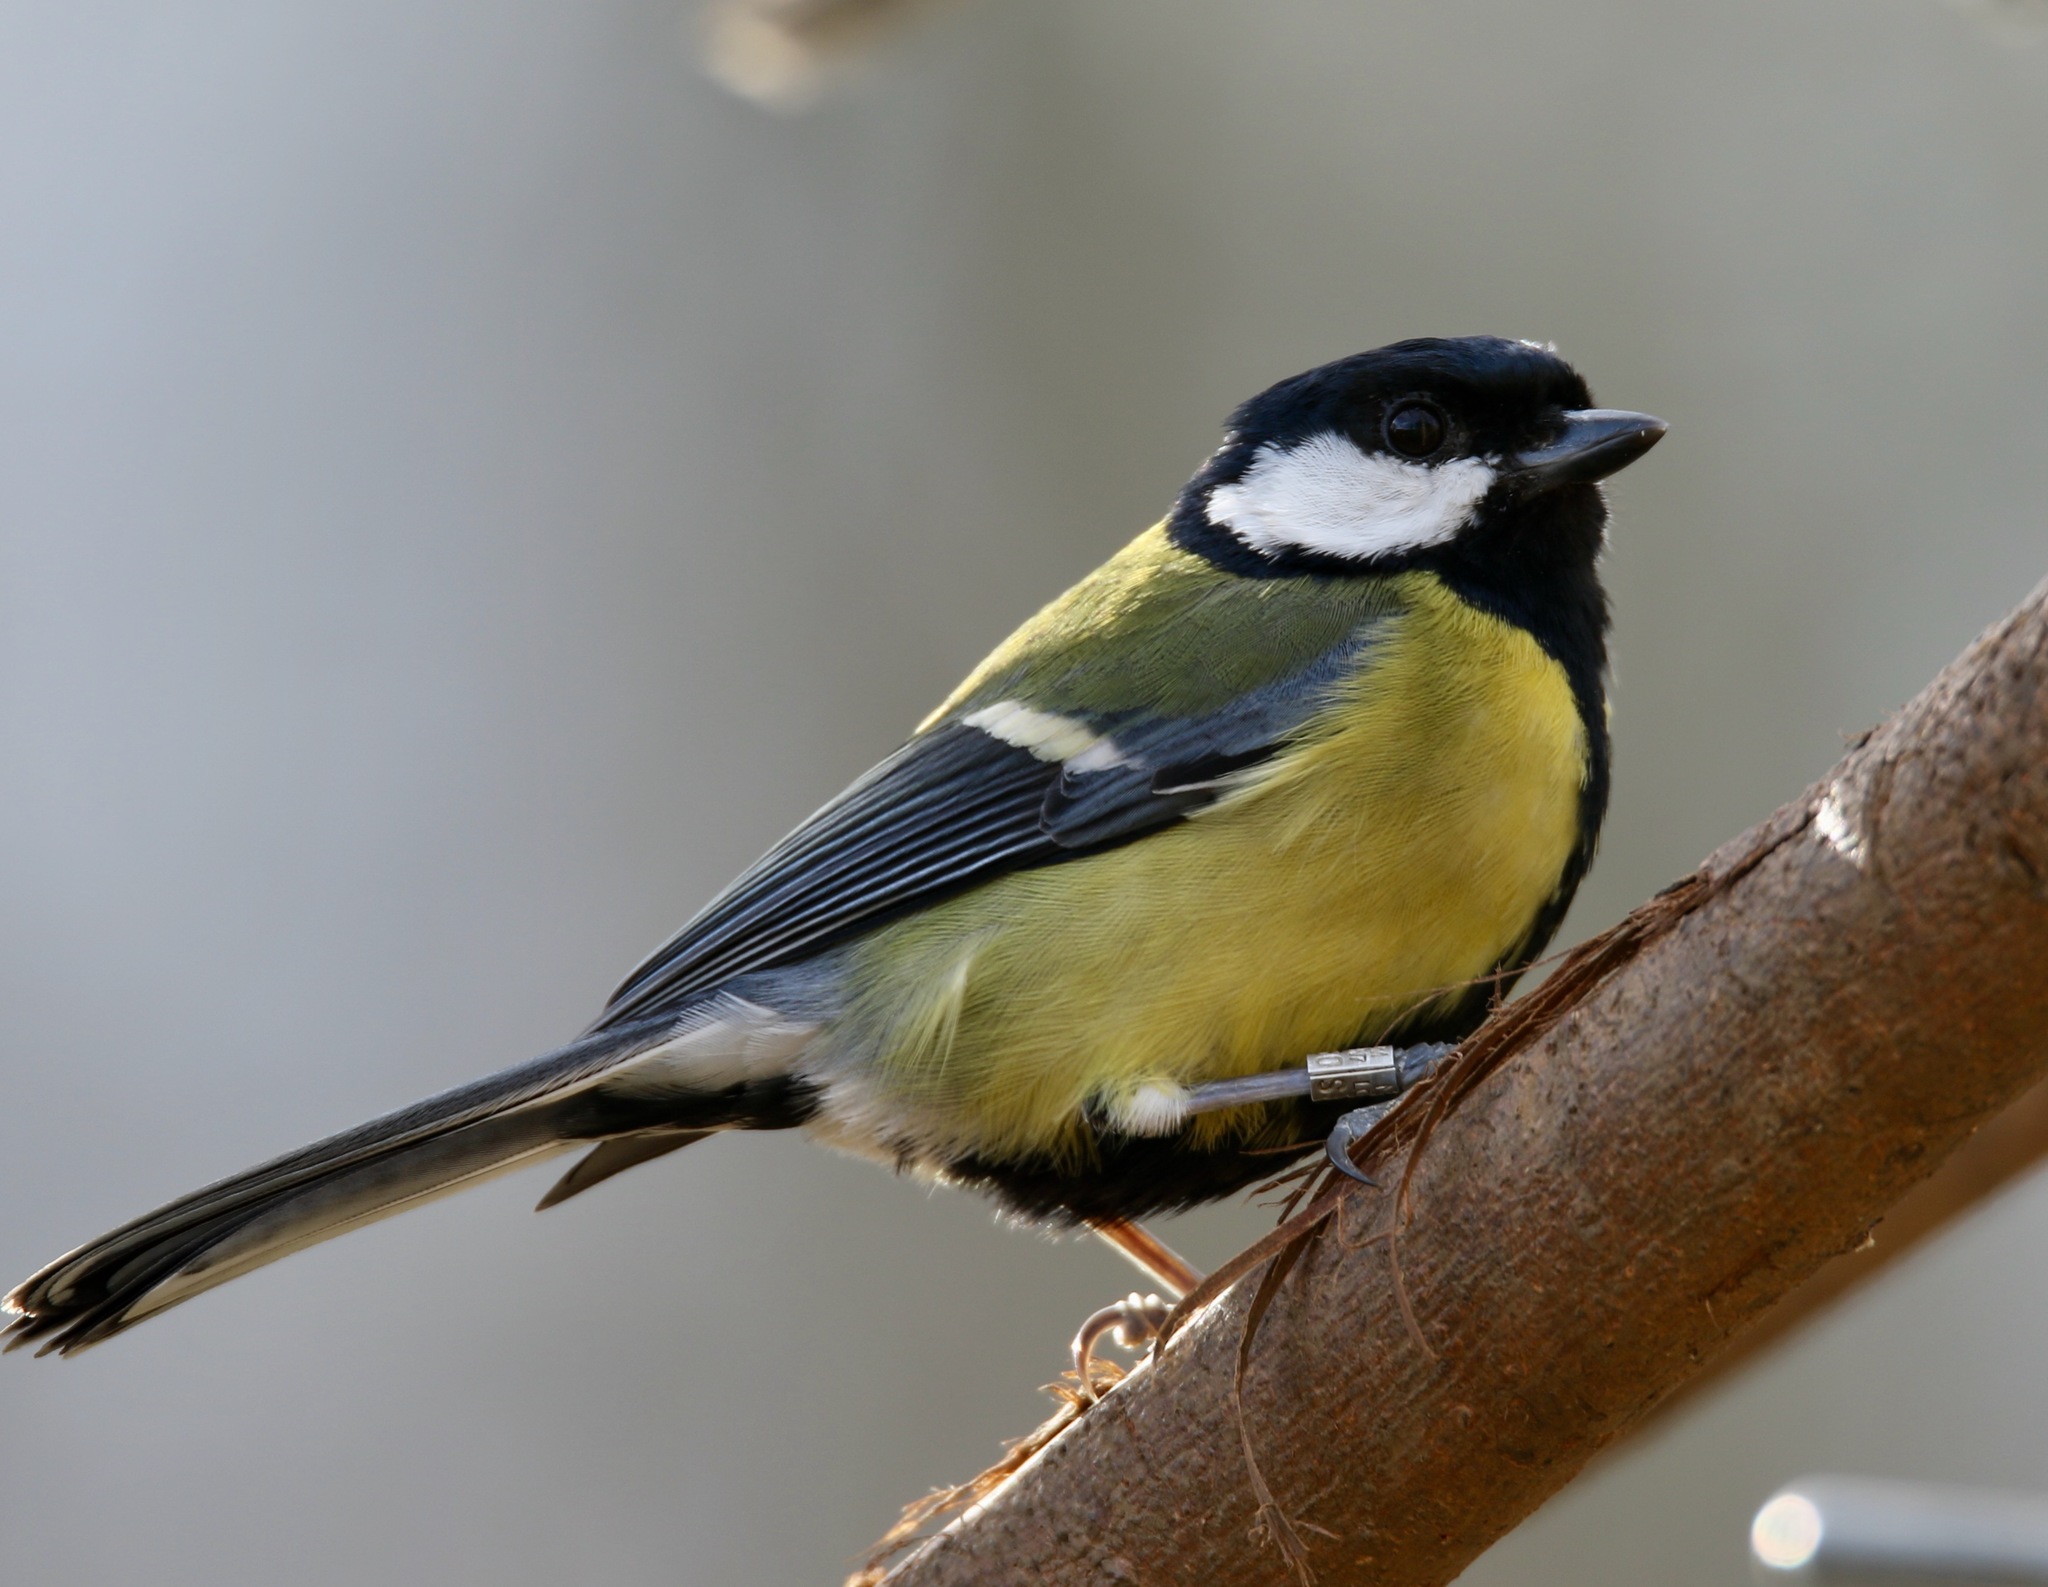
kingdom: Animalia
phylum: Chordata
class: Aves
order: Passeriformes
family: Paridae
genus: Parus
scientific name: Parus major
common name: Great tit
